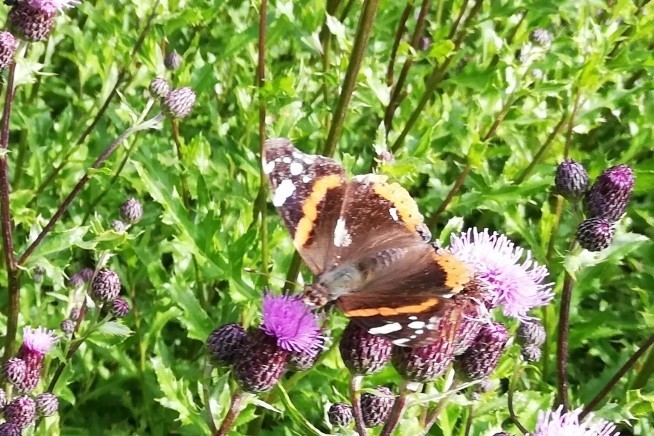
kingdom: Animalia
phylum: Arthropoda
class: Insecta
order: Lepidoptera
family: Nymphalidae
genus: Vanessa
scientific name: Vanessa atalanta
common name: Red admiral
